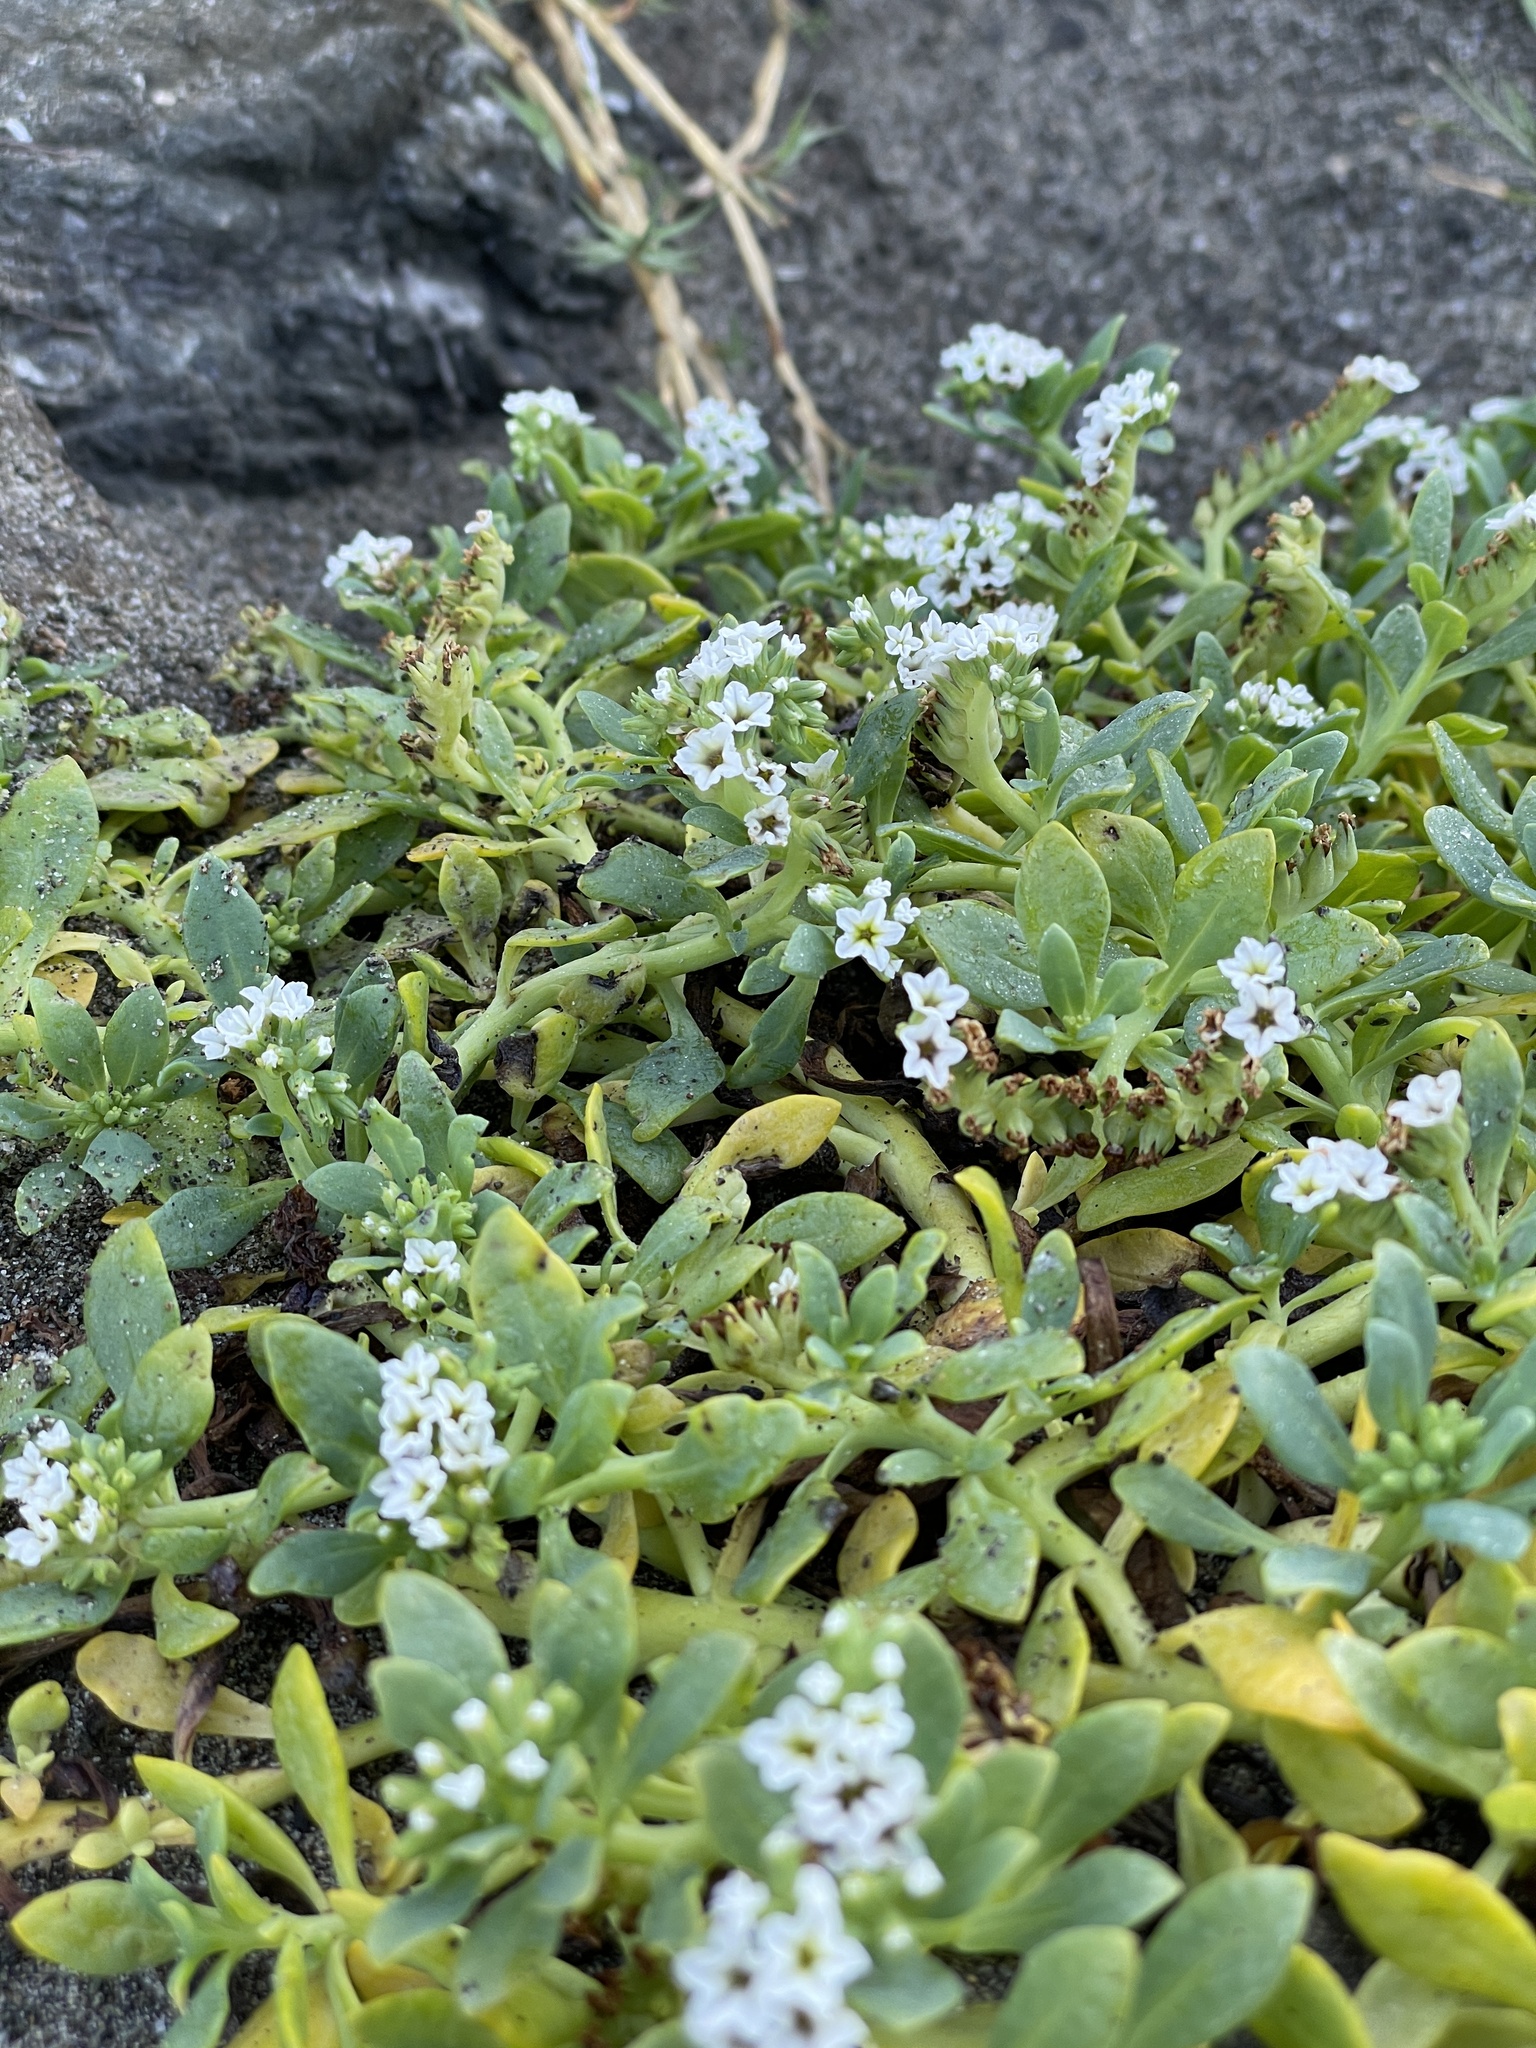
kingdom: Plantae
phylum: Tracheophyta
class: Magnoliopsida
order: Boraginales
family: Heliotropiaceae
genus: Heliotropium
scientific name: Heliotropium curassavicum
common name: Seaside heliotrope
